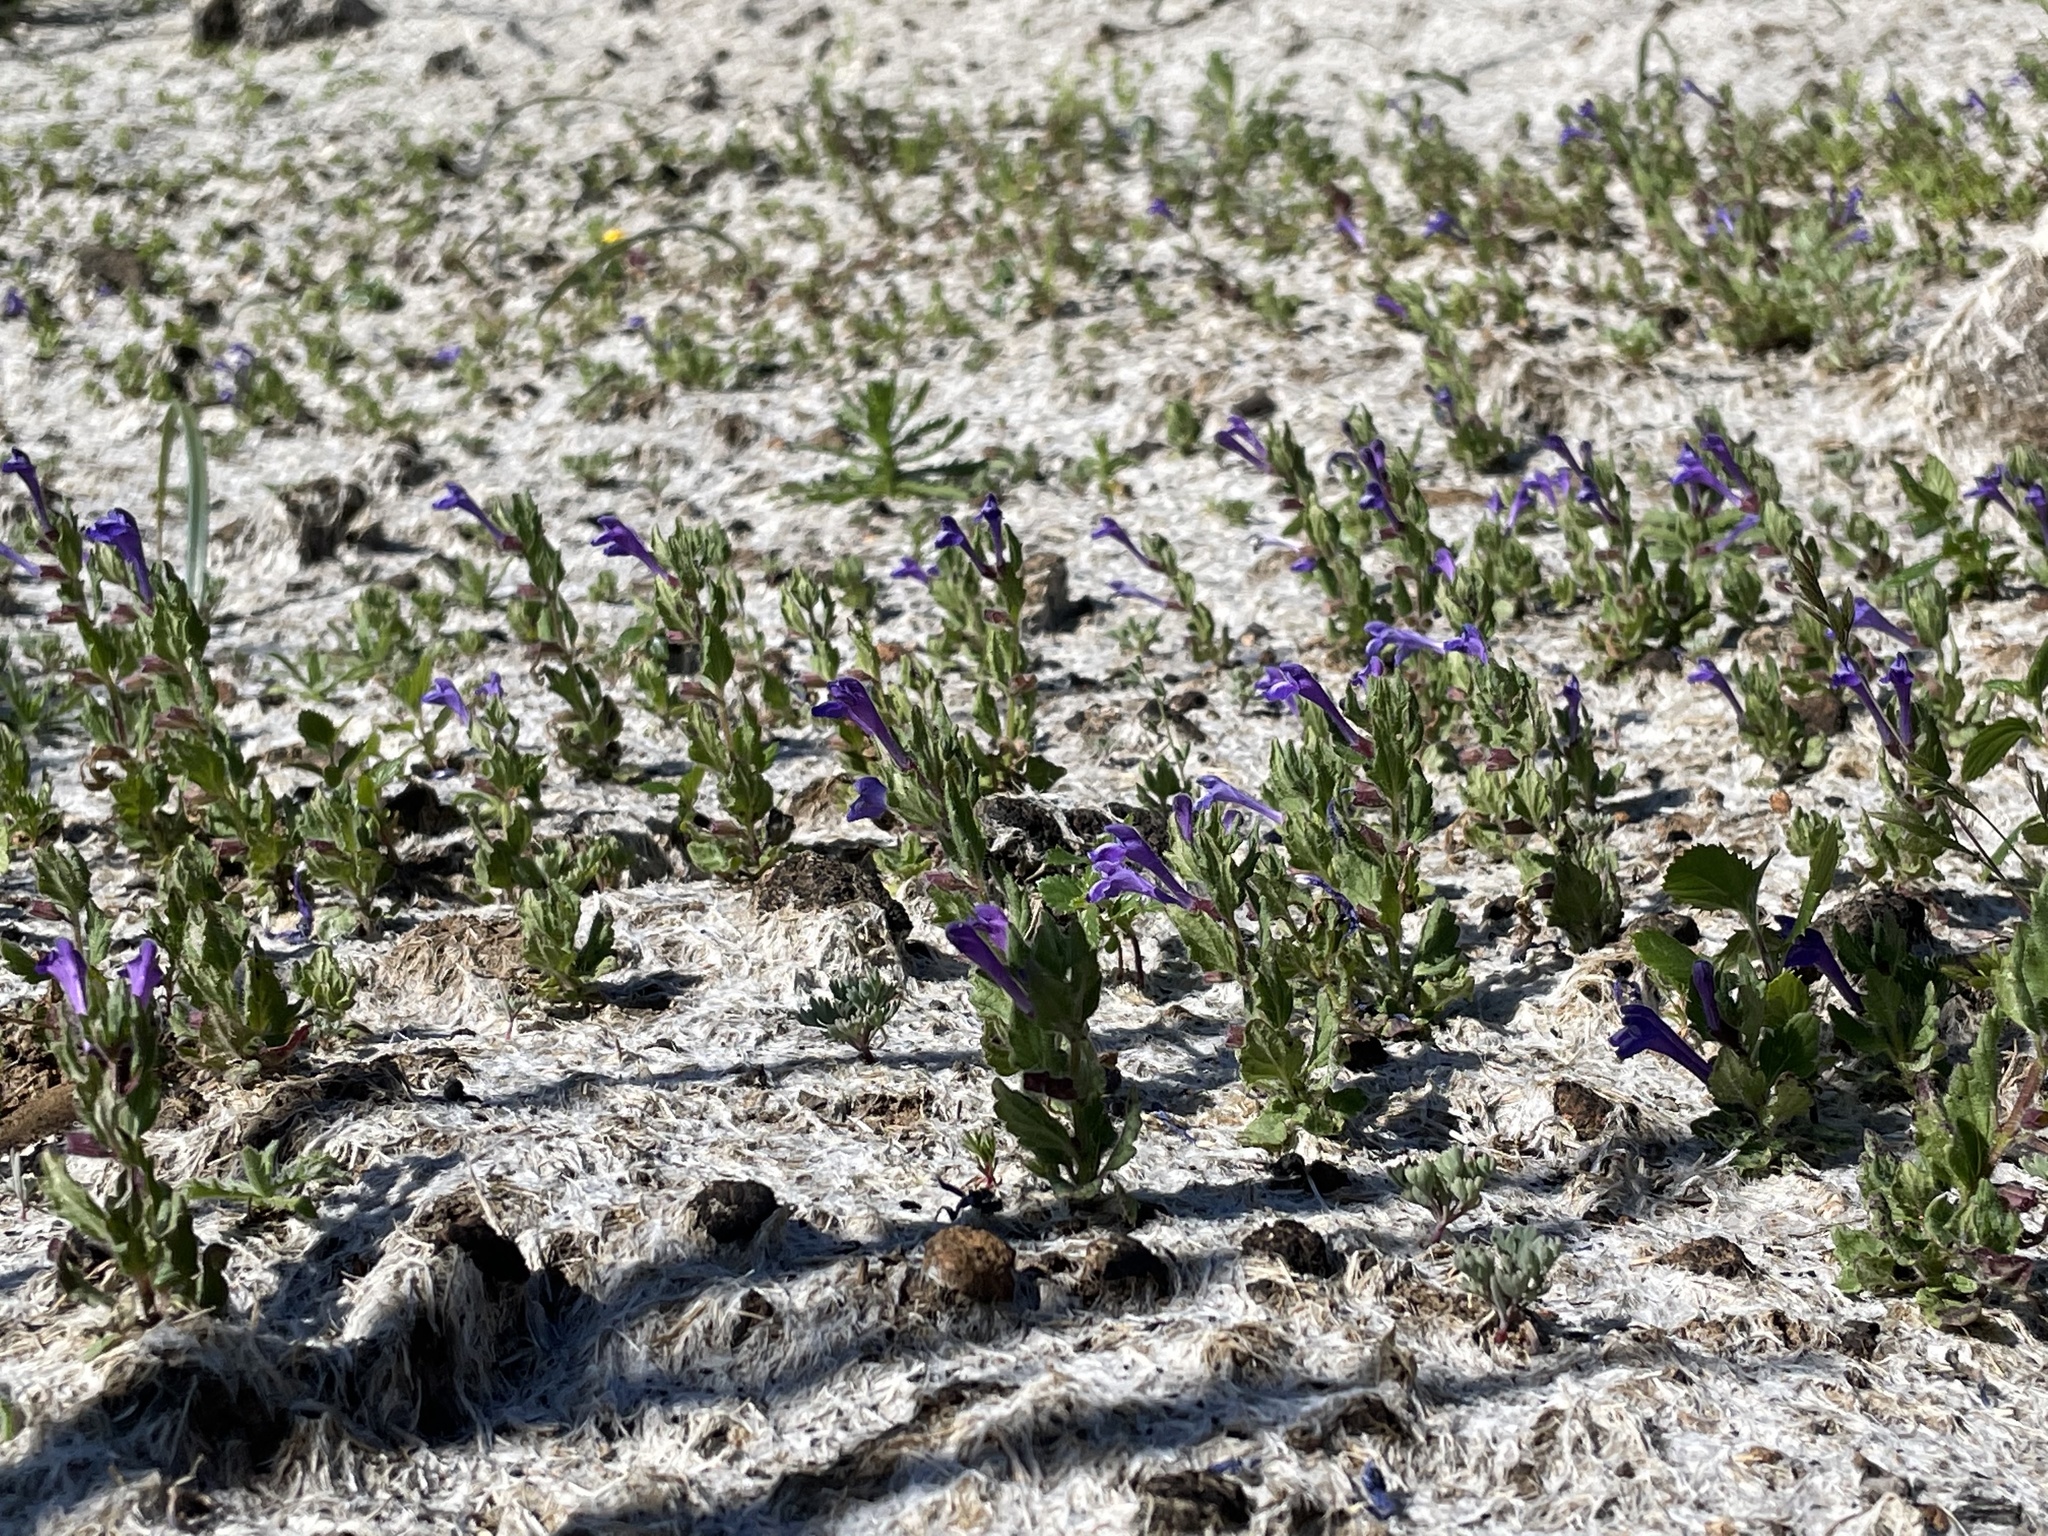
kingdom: Plantae
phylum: Tracheophyta
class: Magnoliopsida
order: Lamiales
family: Lamiaceae
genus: Scutellaria
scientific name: Scutellaria tuberosa
